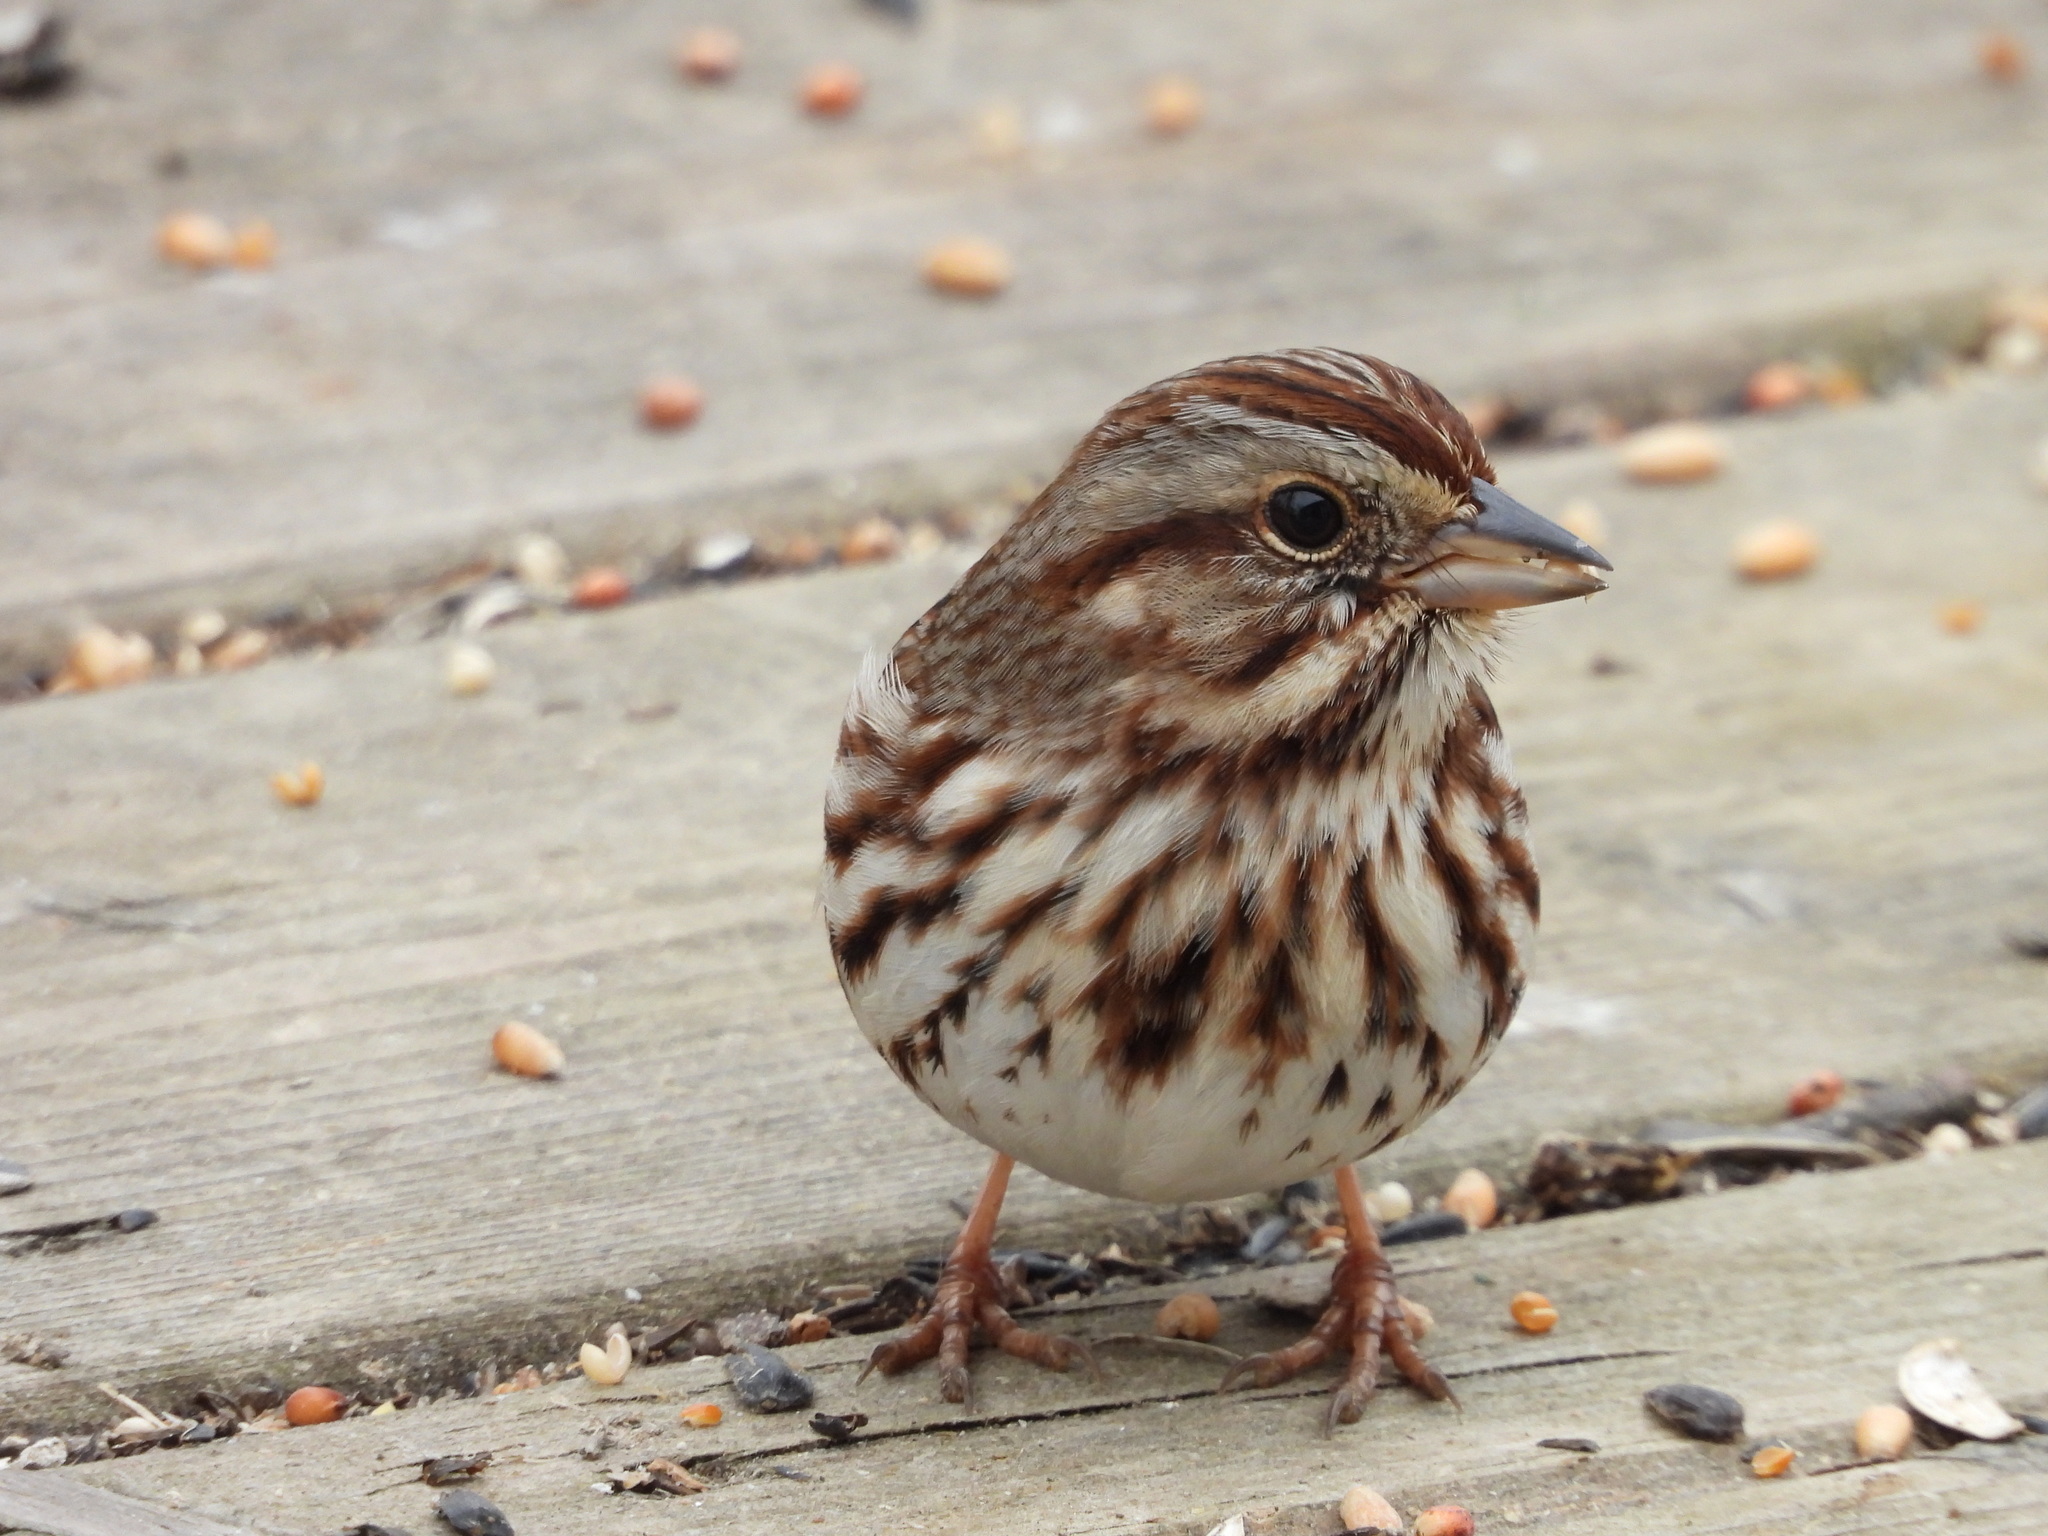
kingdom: Animalia
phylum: Chordata
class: Aves
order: Passeriformes
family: Passerellidae
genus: Melospiza
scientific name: Melospiza melodia
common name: Song sparrow
